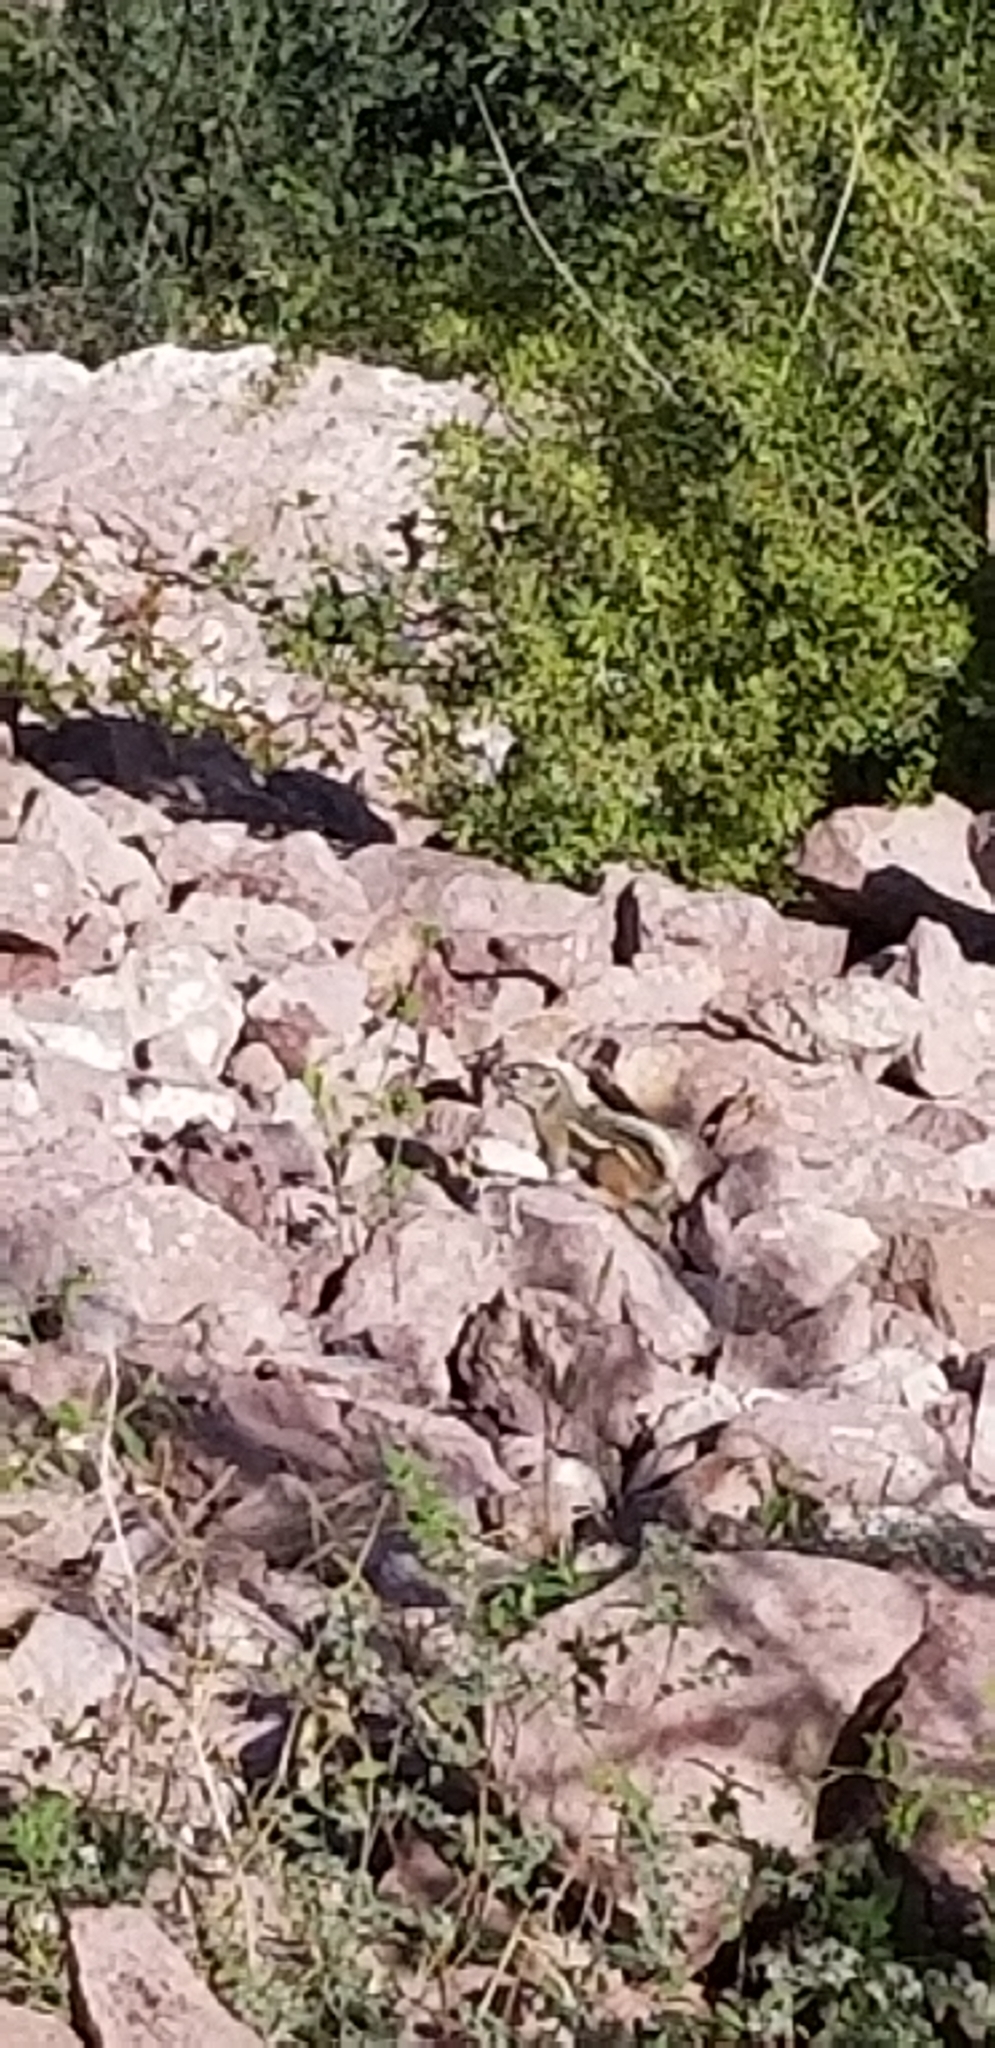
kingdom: Animalia
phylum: Chordata
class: Mammalia
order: Rodentia
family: Sciuridae
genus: Ammospermophilus
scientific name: Ammospermophilus leucurus
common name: White-tailed antelope squirrel
